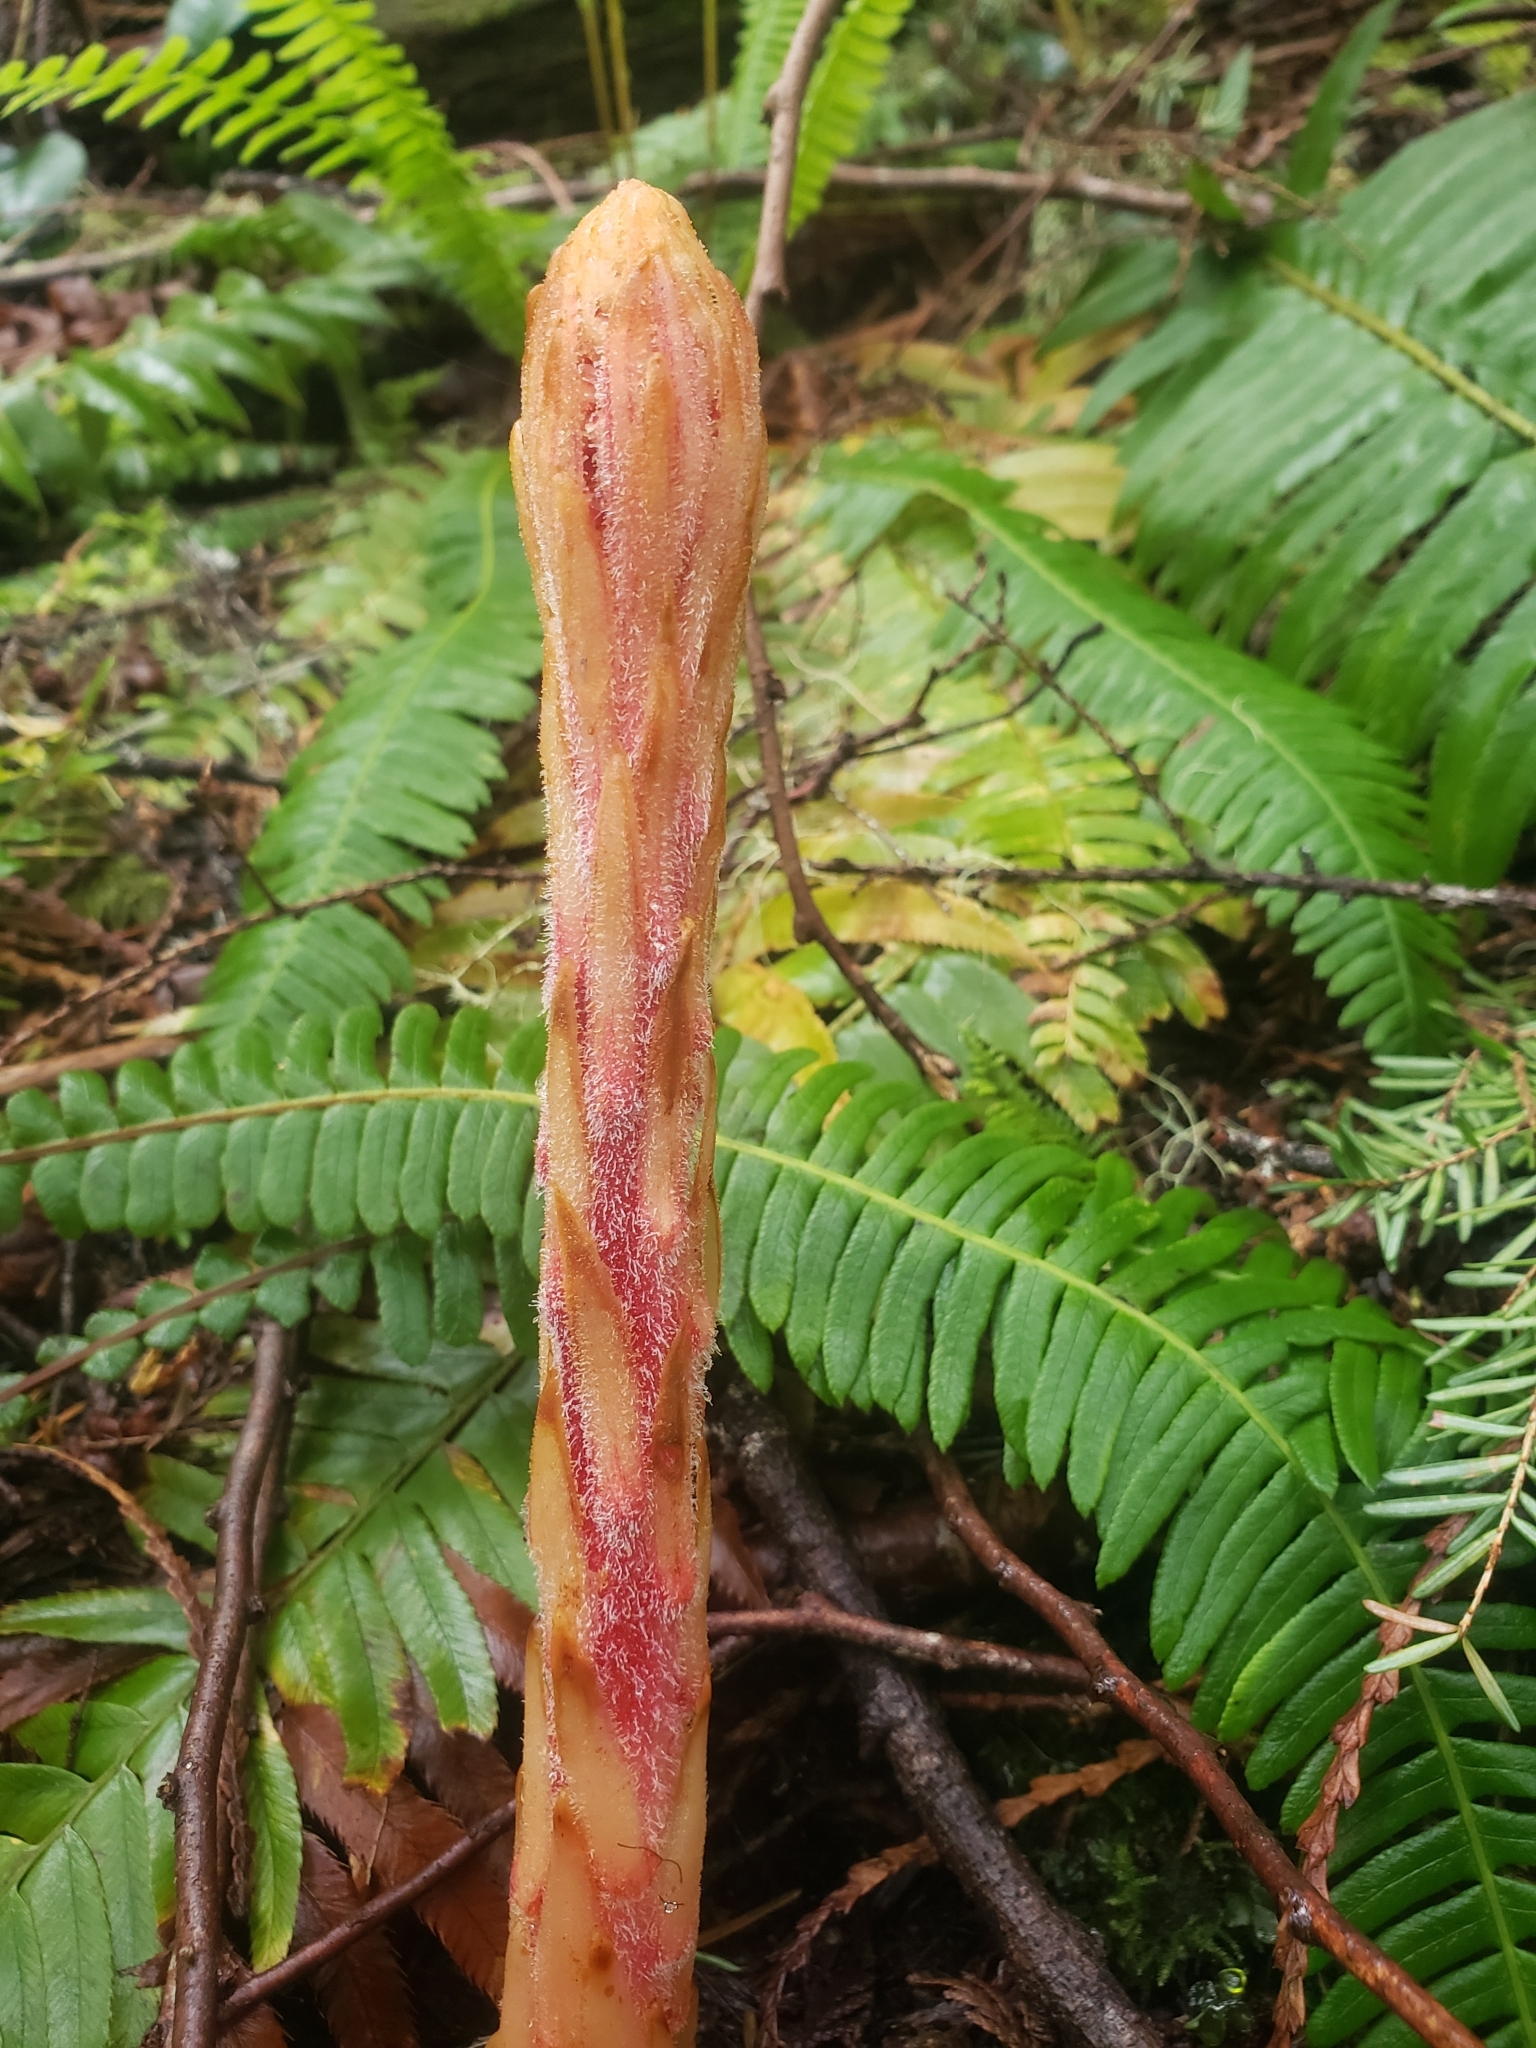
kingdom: Plantae
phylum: Tracheophyta
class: Magnoliopsida
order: Ericales
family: Ericaceae
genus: Pterospora
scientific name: Pterospora andromedea
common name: Giant bird's-nest
